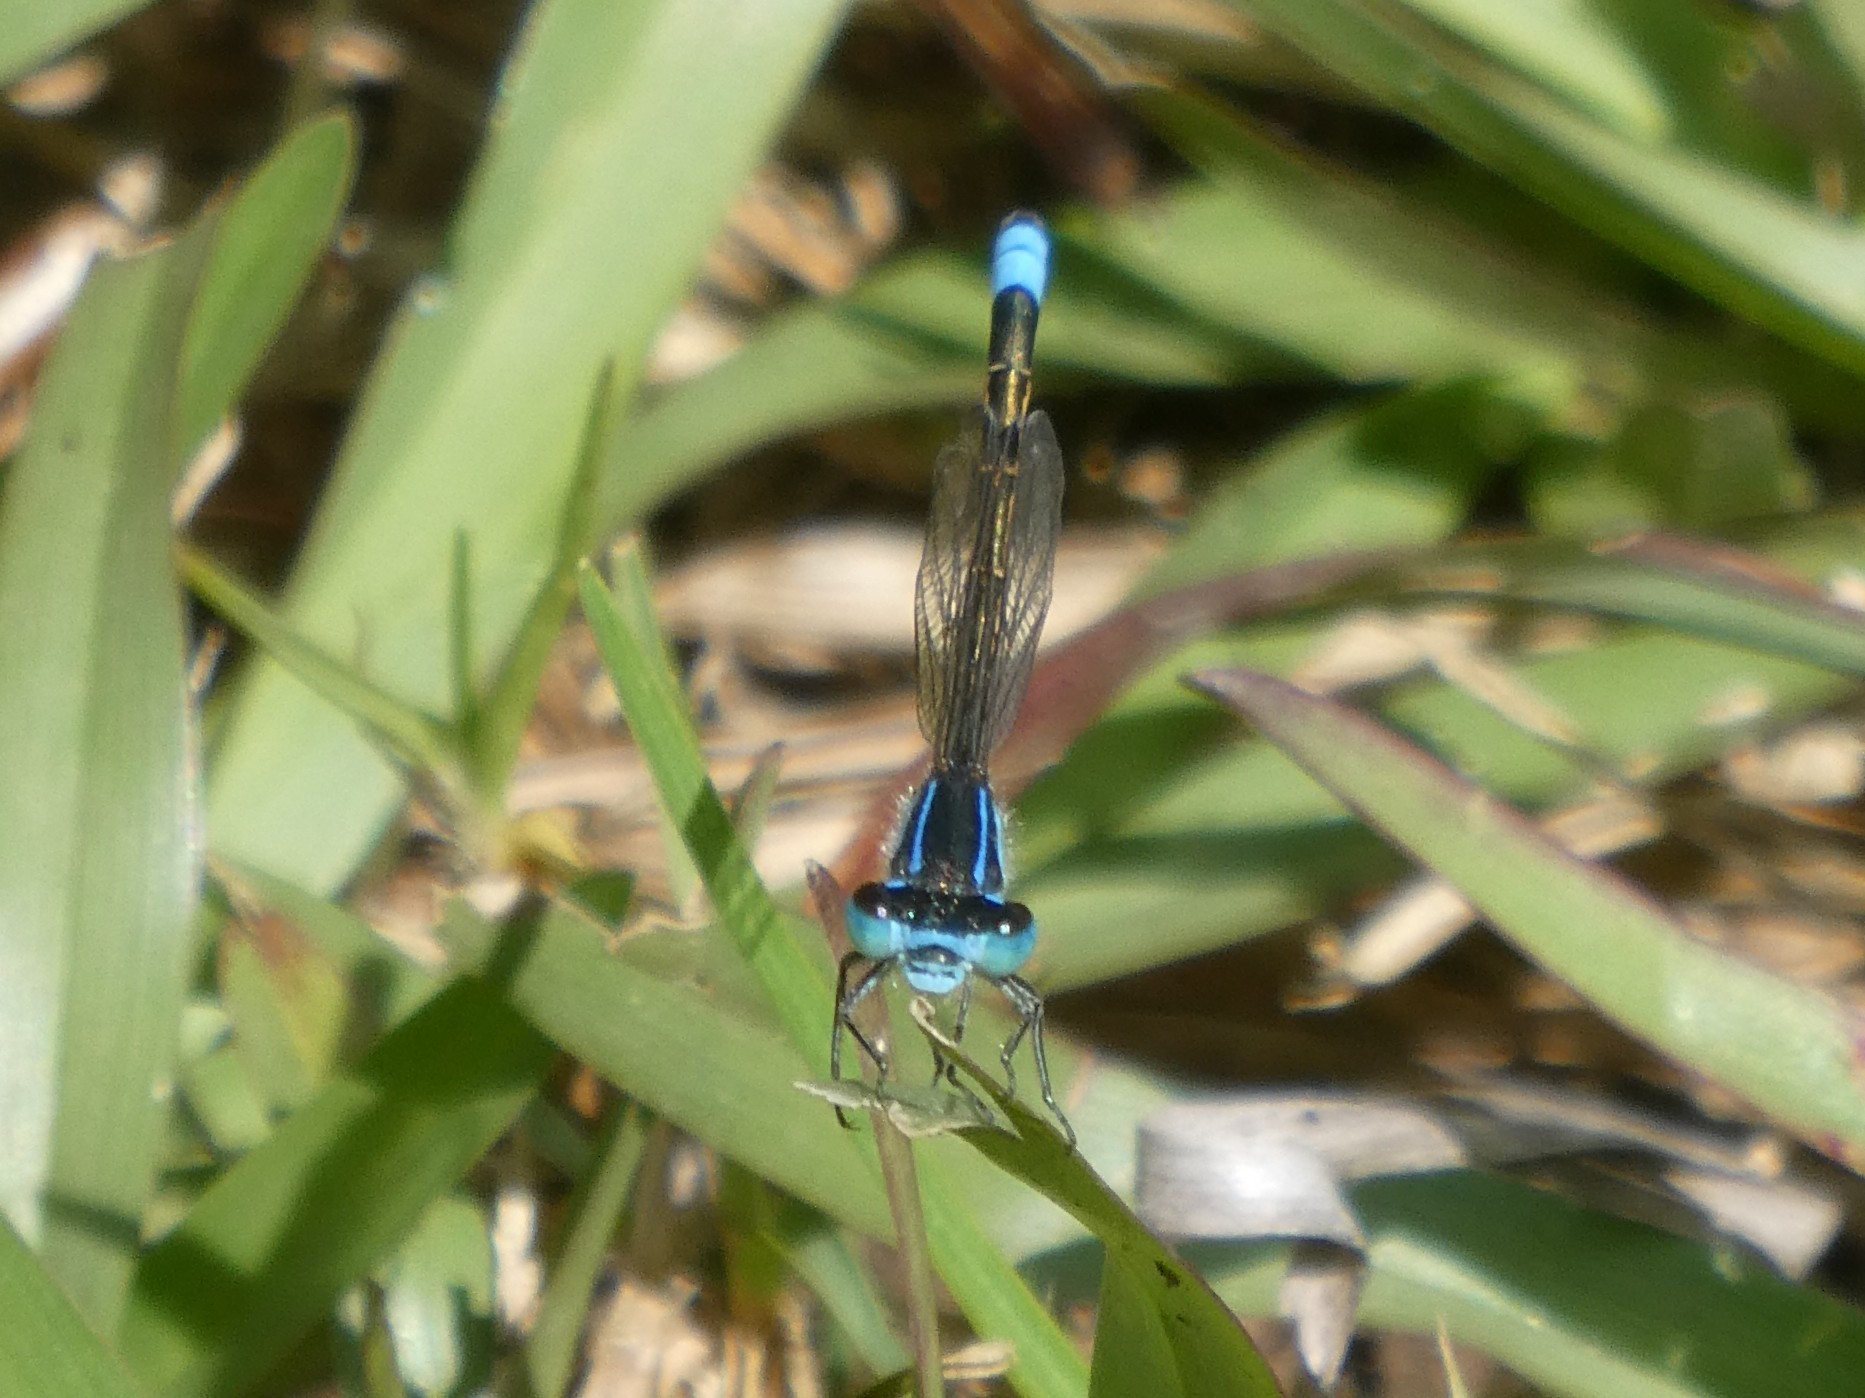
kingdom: Animalia
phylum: Arthropoda
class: Insecta
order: Odonata
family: Coenagrionidae
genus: Ischnura
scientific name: Ischnura heterosticta
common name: Common bluetail
